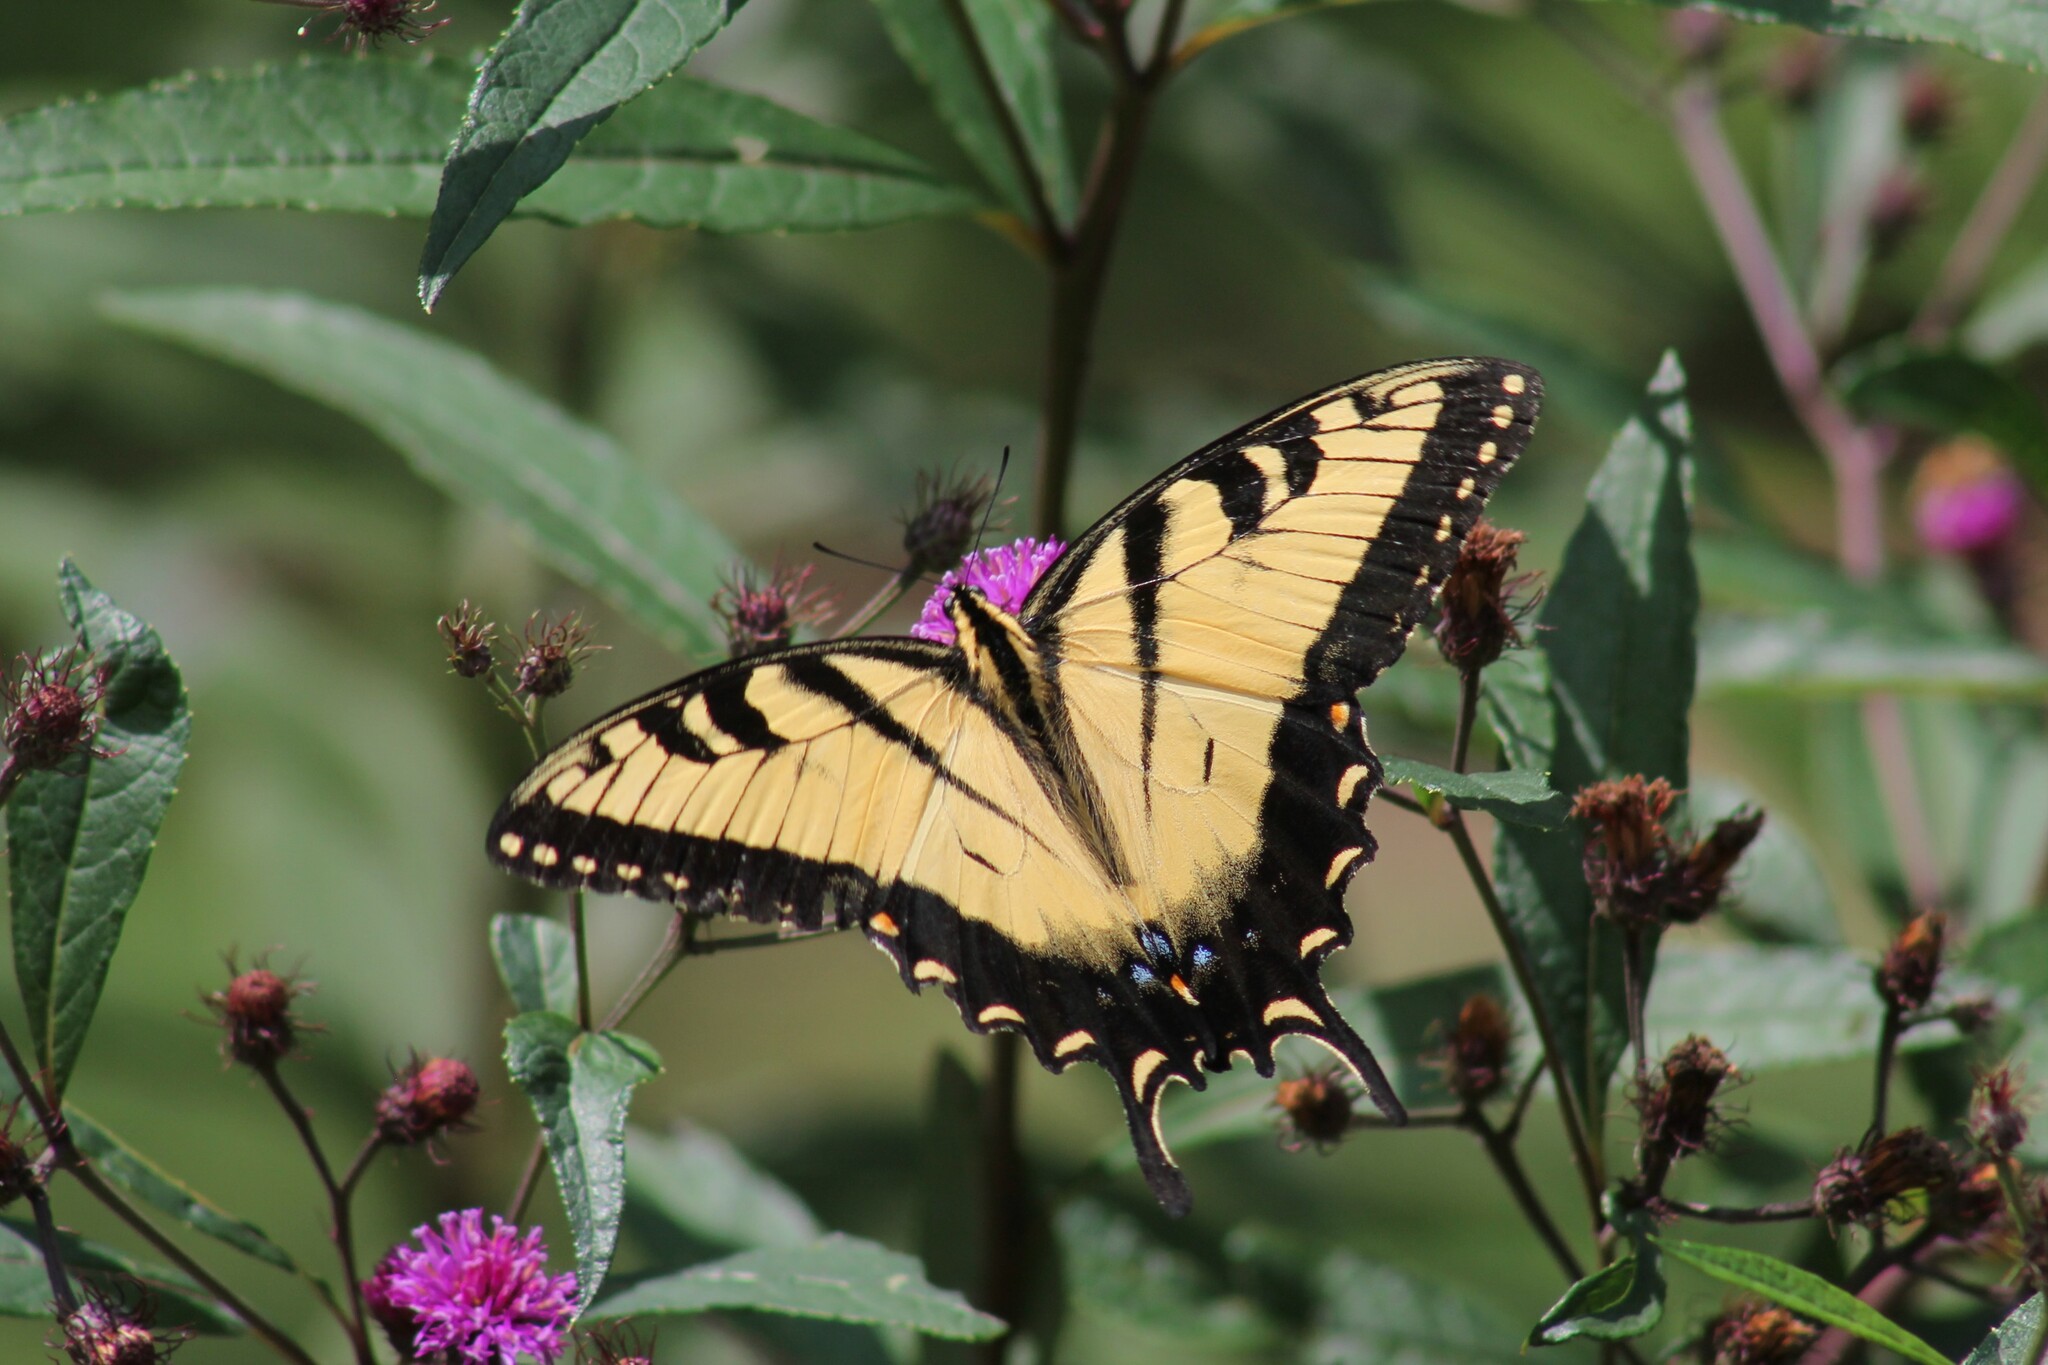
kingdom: Animalia
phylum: Arthropoda
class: Insecta
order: Lepidoptera
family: Papilionidae
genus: Papilio
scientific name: Papilio glaucus
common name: Tiger swallowtail
